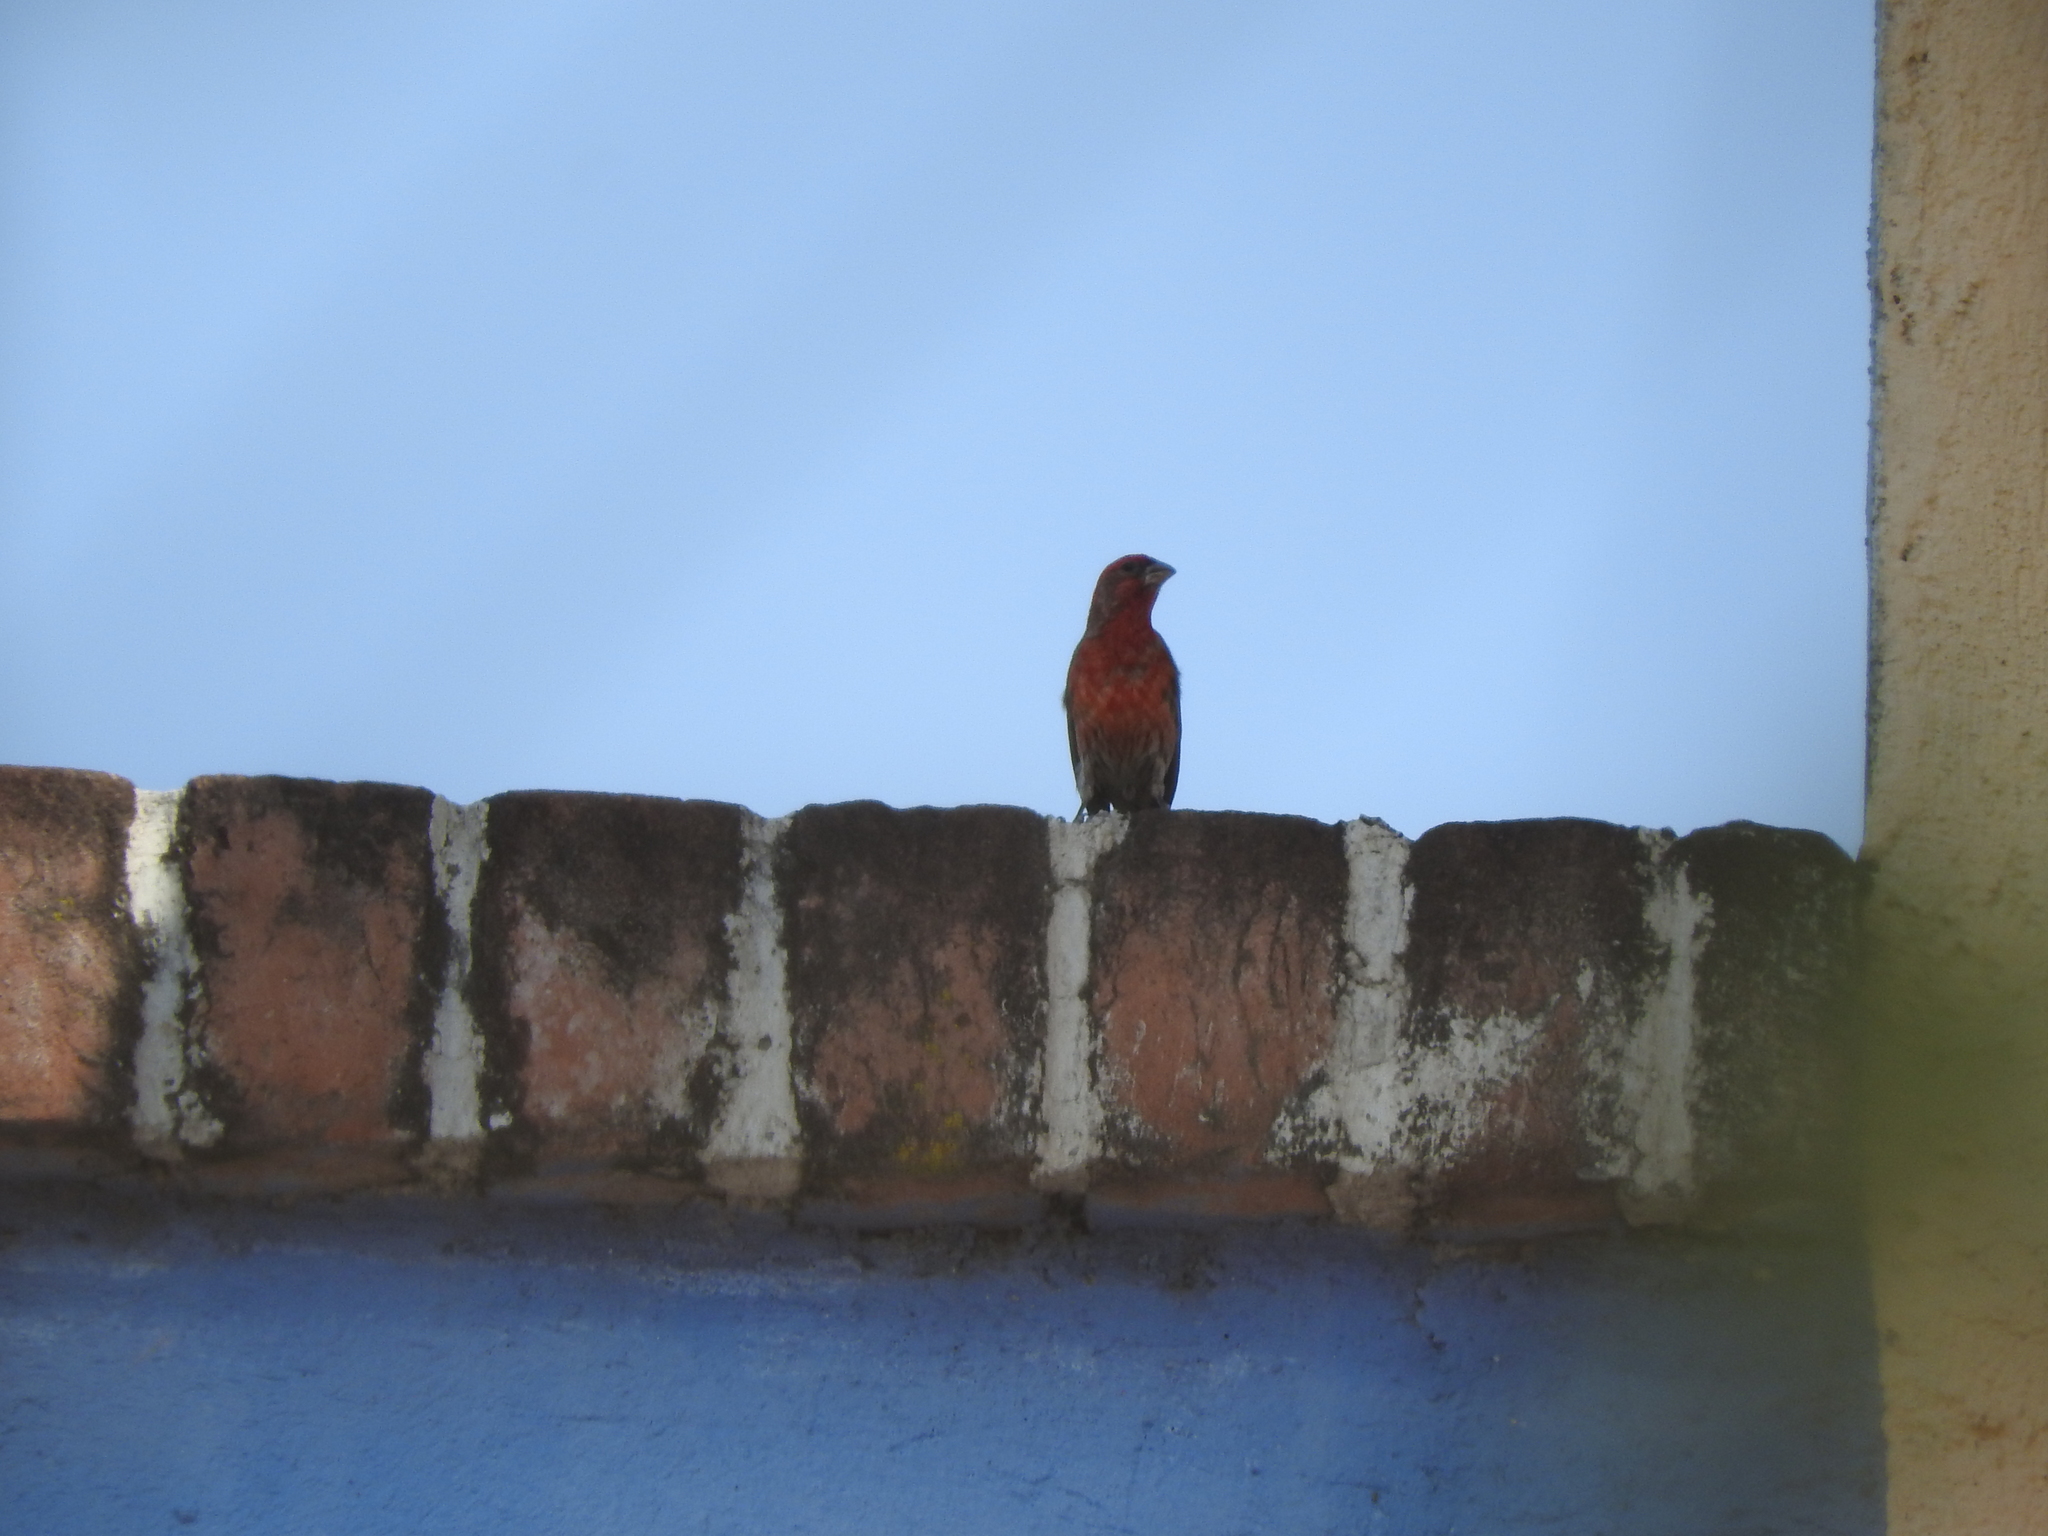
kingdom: Animalia
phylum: Chordata
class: Aves
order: Passeriformes
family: Fringillidae
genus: Haemorhous
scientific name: Haemorhous mexicanus
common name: House finch
